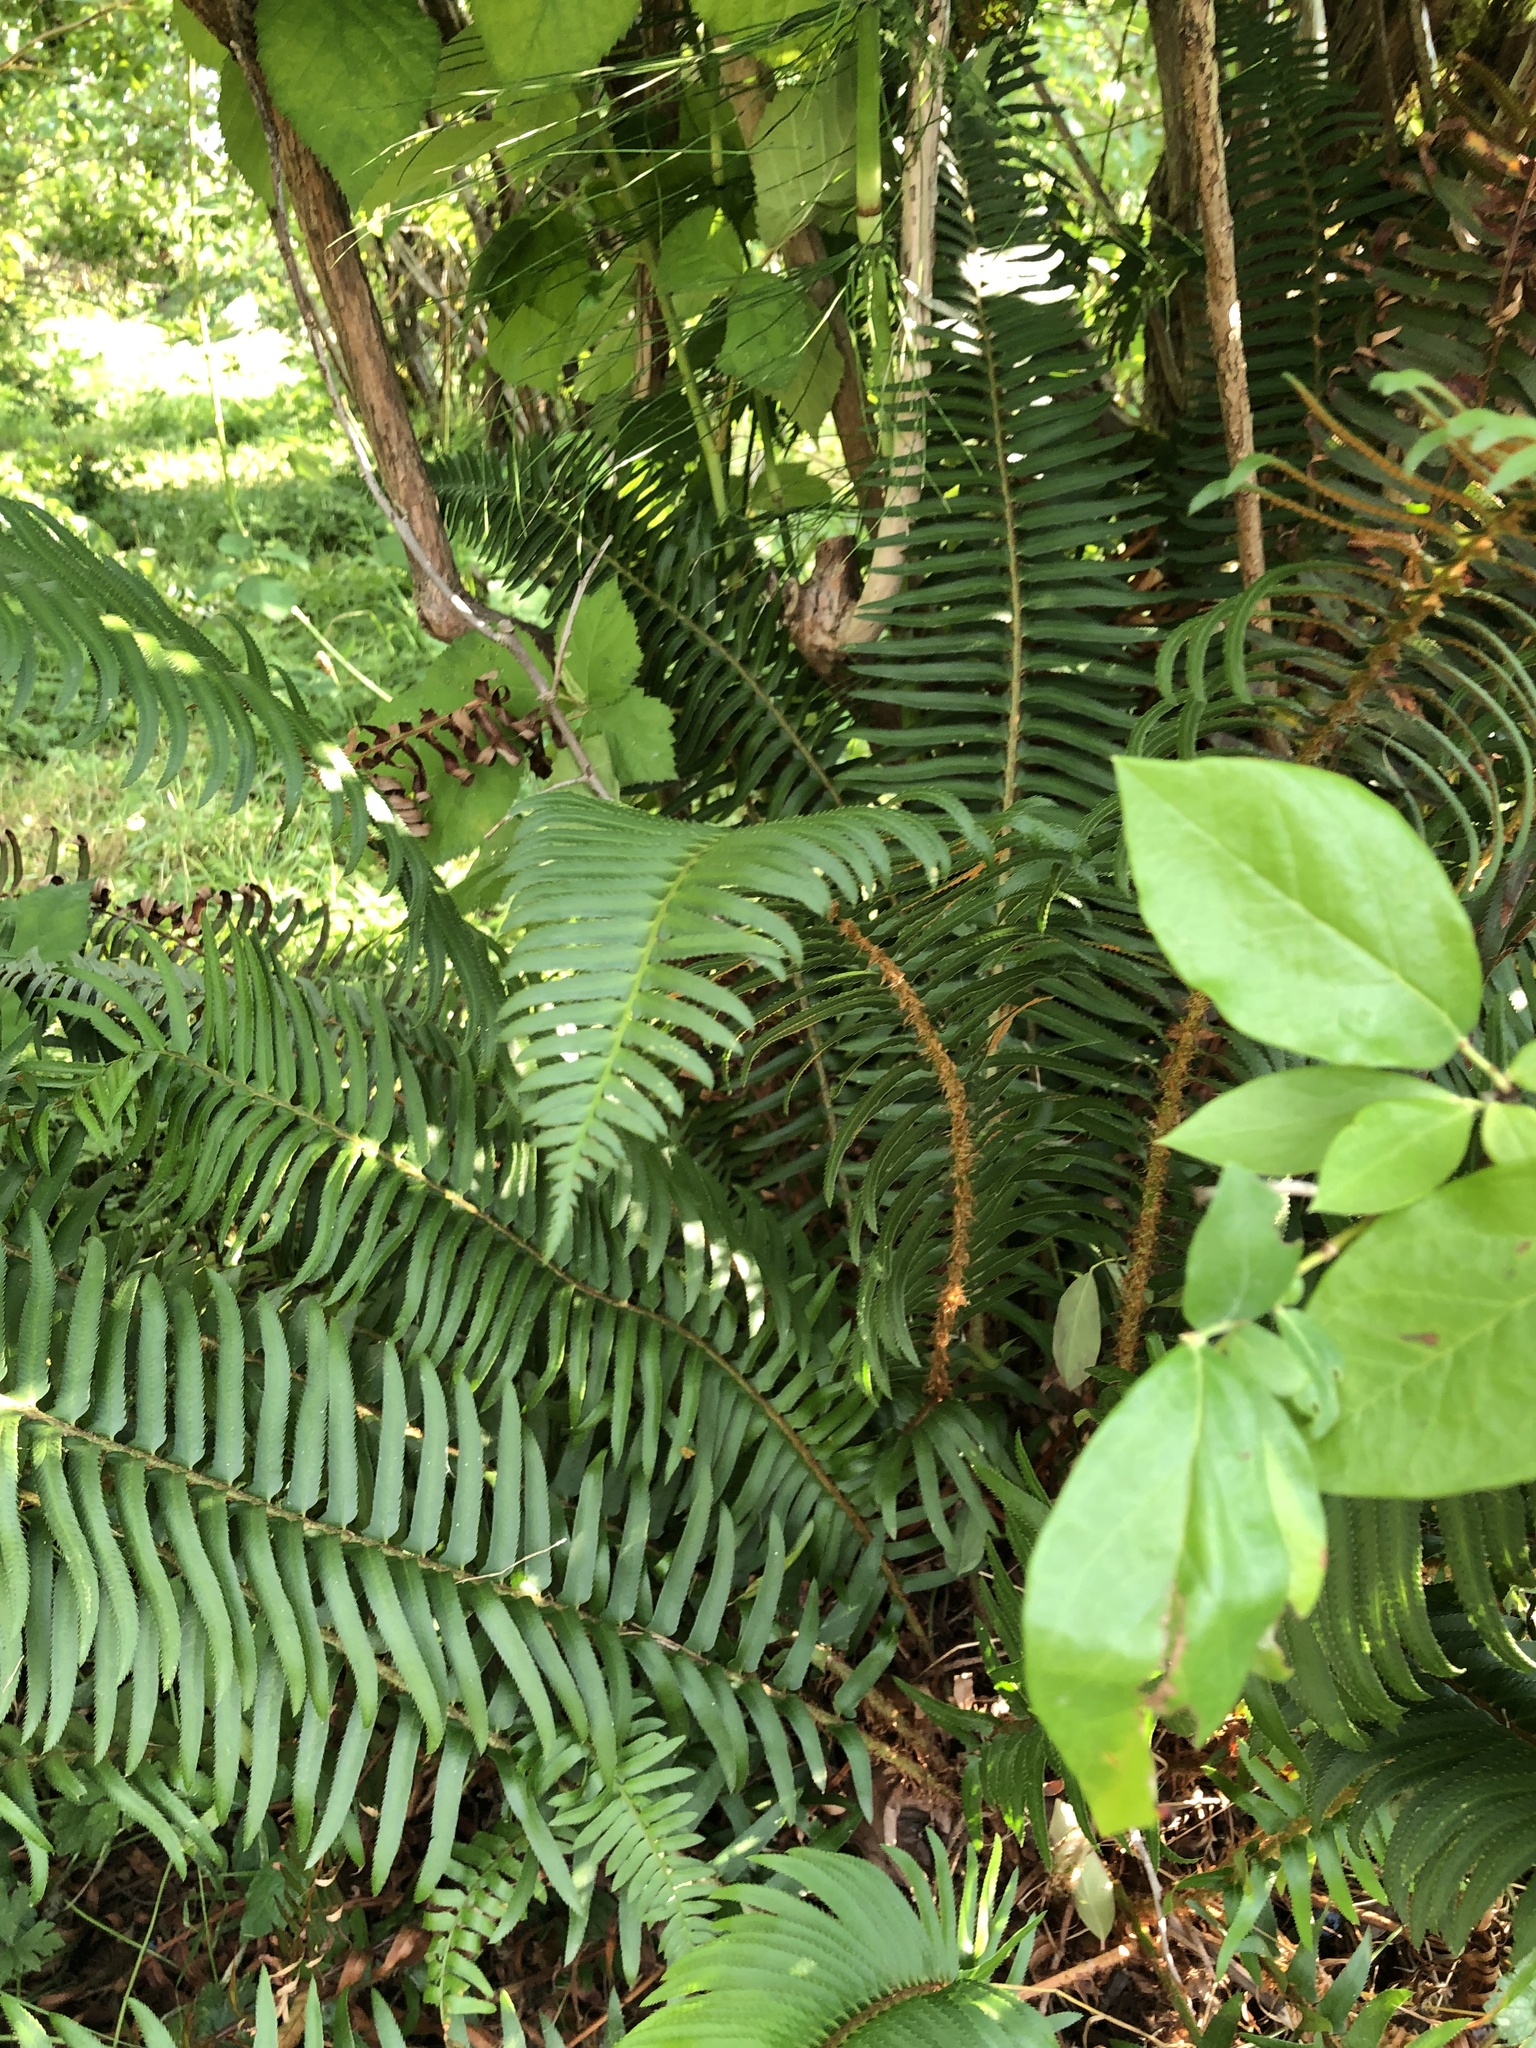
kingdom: Plantae
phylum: Tracheophyta
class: Polypodiopsida
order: Polypodiales
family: Dryopteridaceae
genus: Polystichum
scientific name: Polystichum munitum
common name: Western sword-fern
